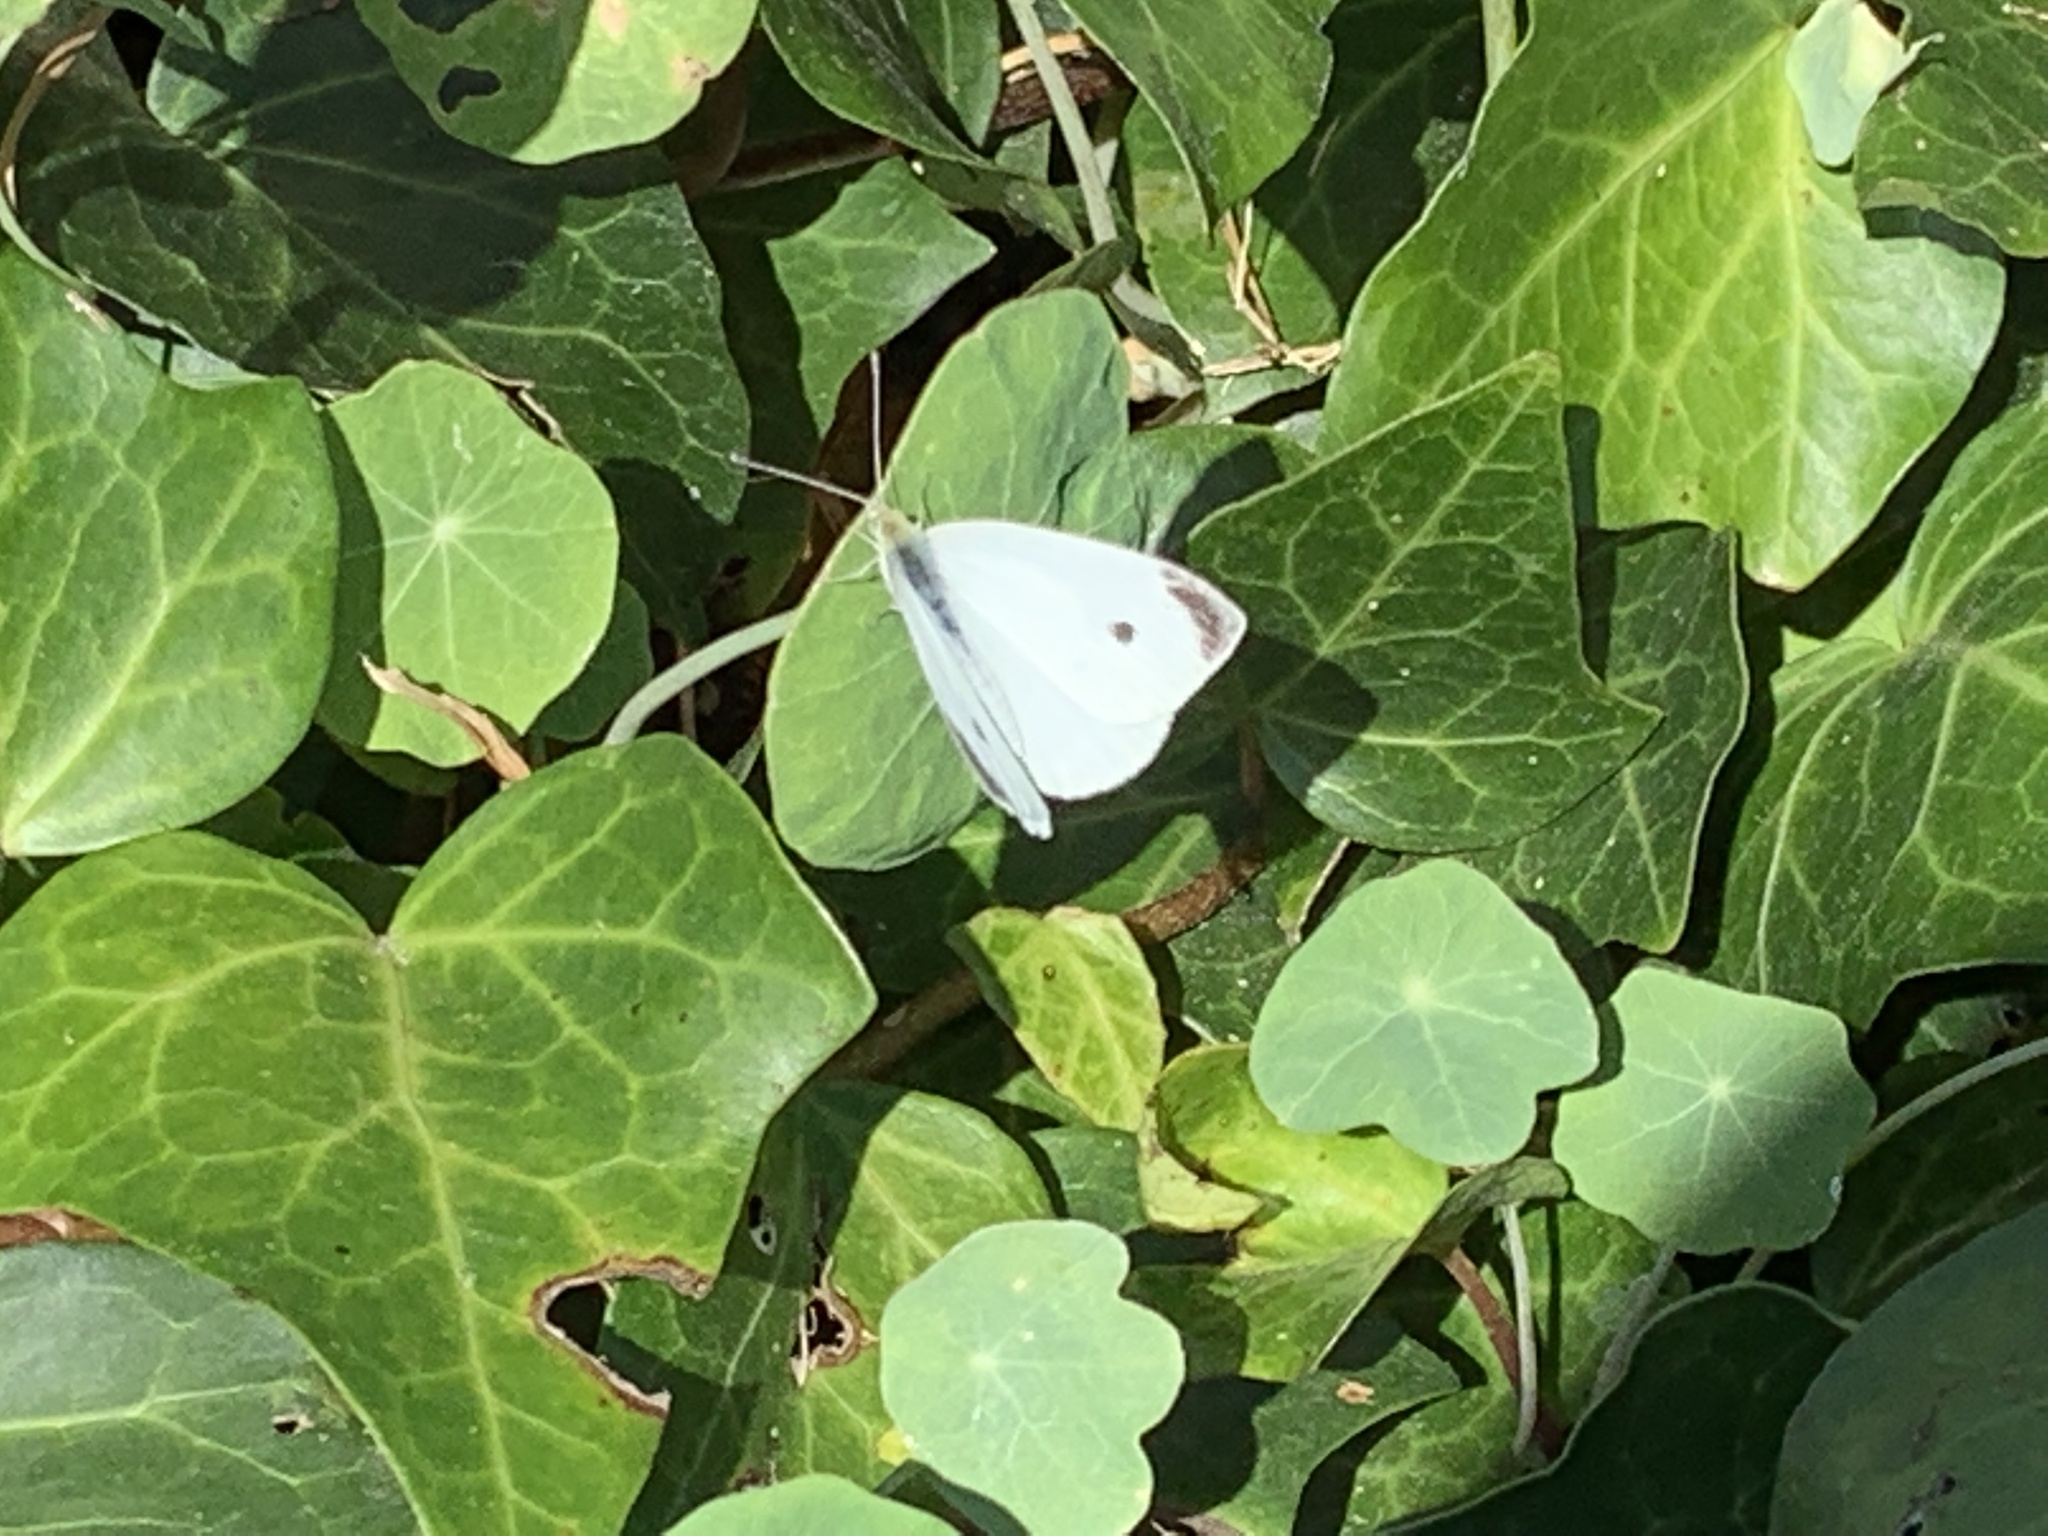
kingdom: Animalia
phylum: Arthropoda
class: Insecta
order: Lepidoptera
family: Pieridae
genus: Pieris
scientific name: Pieris rapae
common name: Small white
